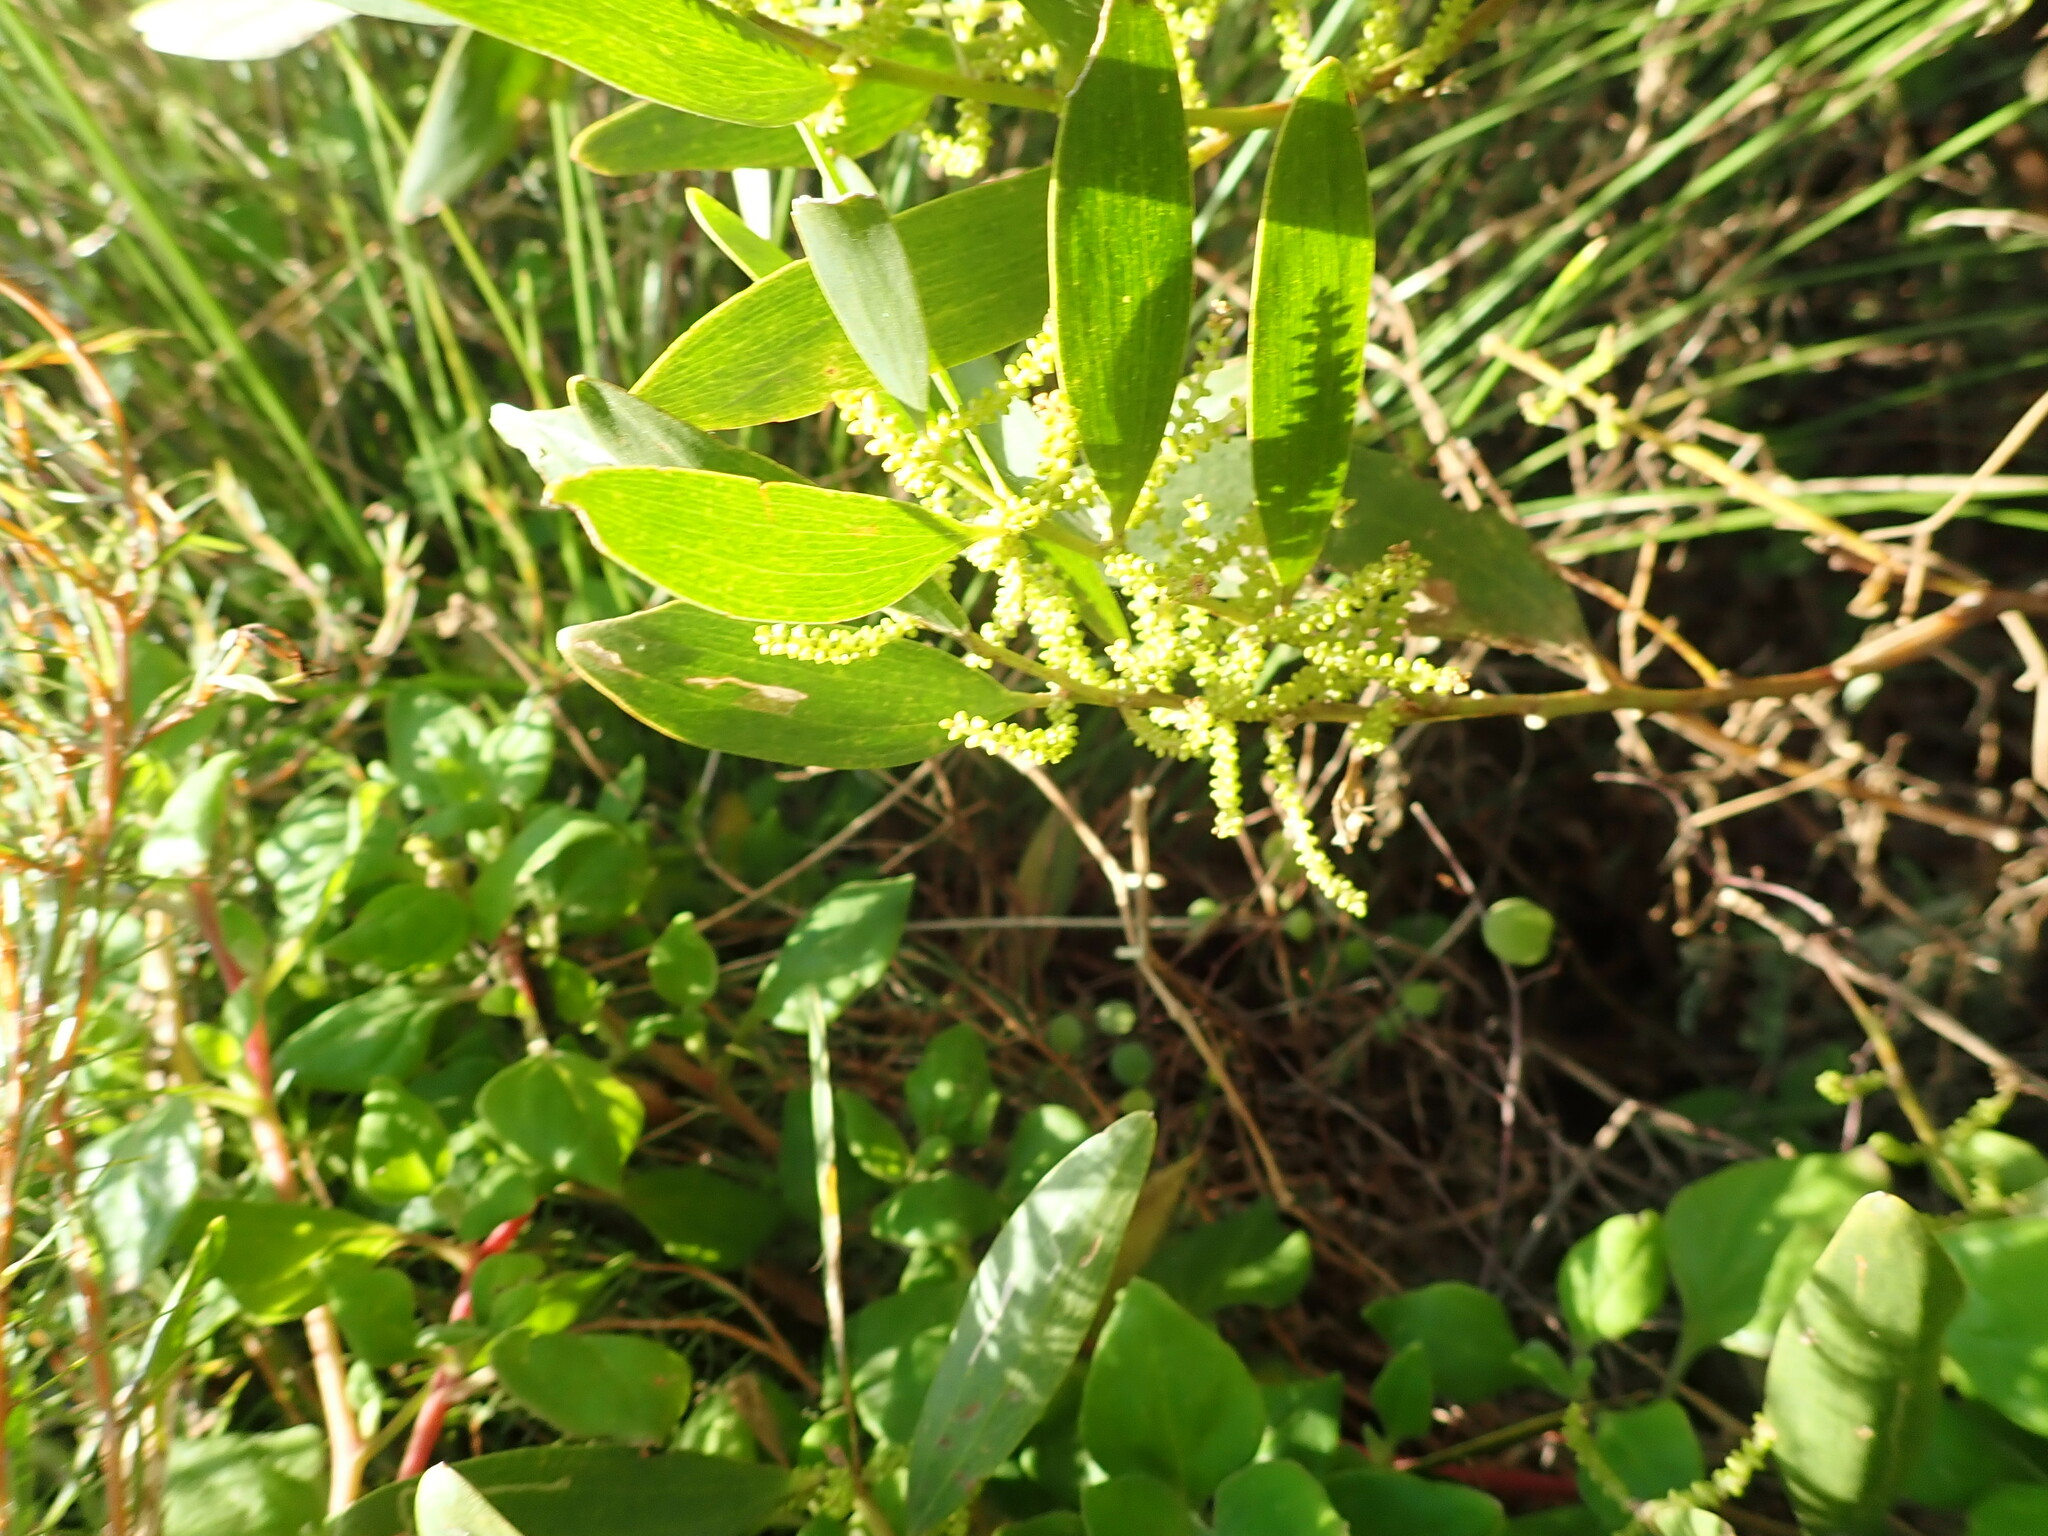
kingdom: Plantae
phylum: Tracheophyta
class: Magnoliopsida
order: Fabales
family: Fabaceae
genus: Acacia
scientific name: Acacia longifolia
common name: Sydney golden wattle
